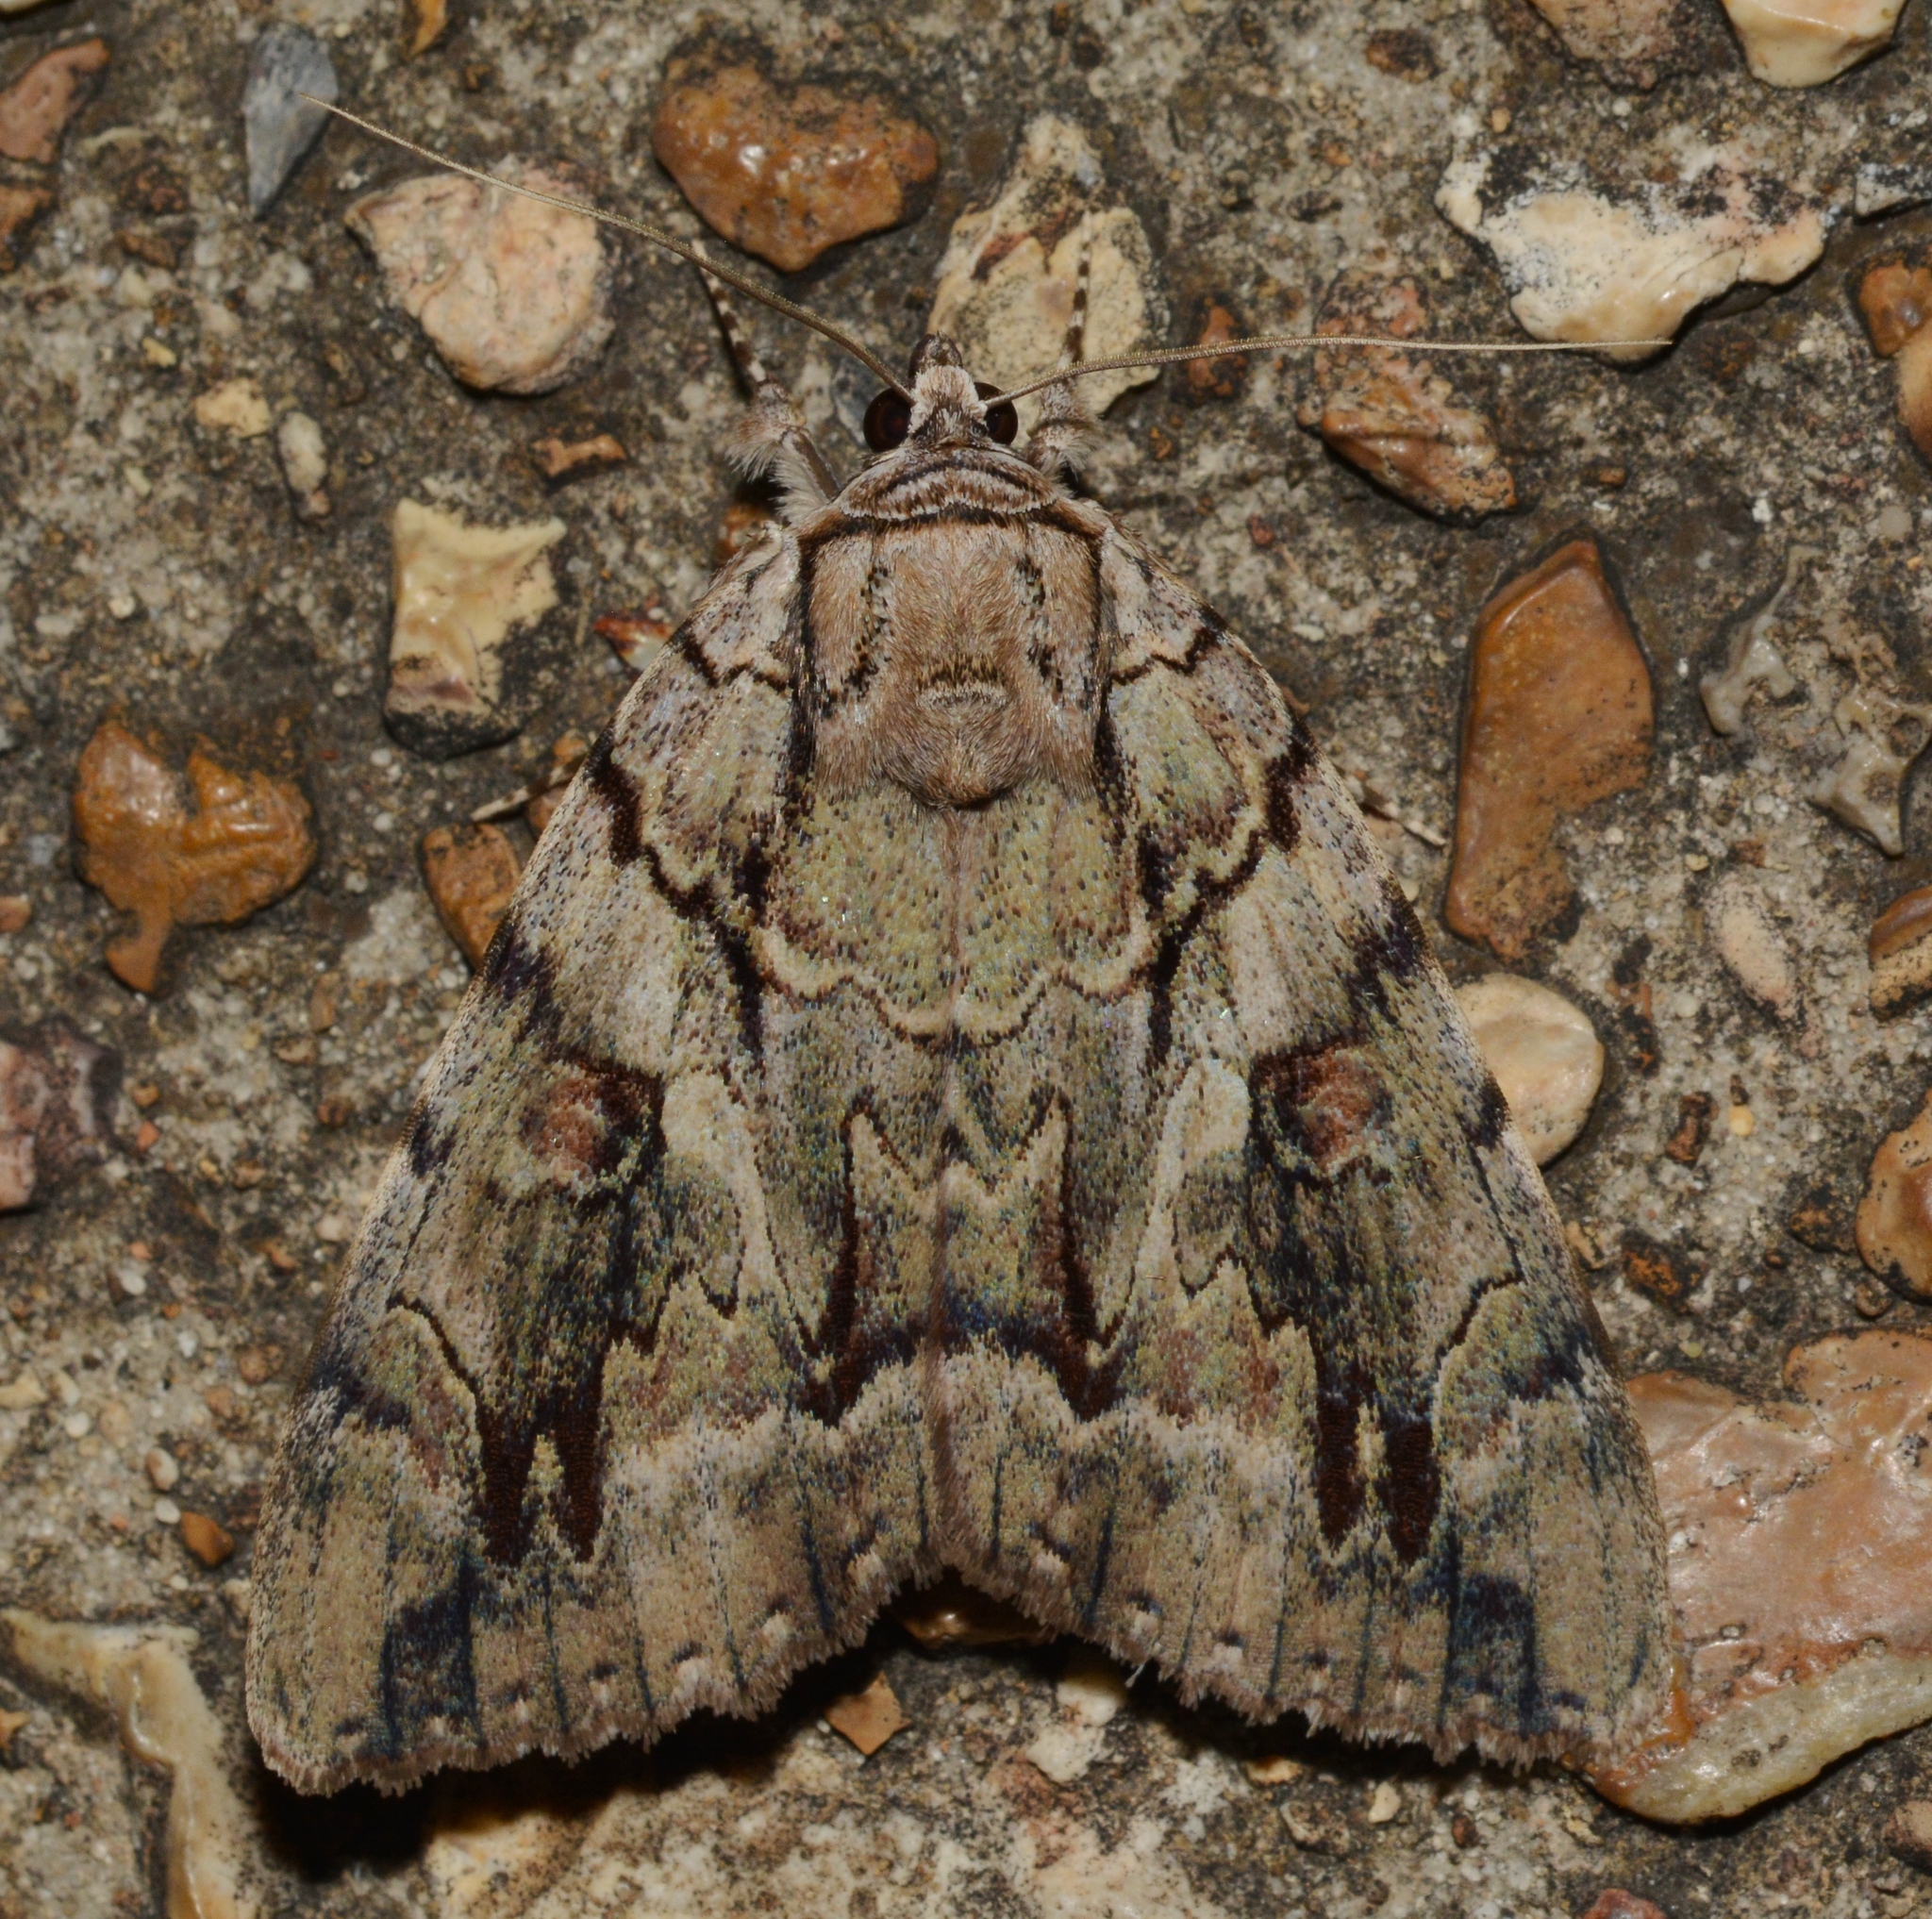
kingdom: Animalia
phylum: Arthropoda
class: Insecta
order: Lepidoptera
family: Erebidae
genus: Catocala
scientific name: Catocala luctuosa
